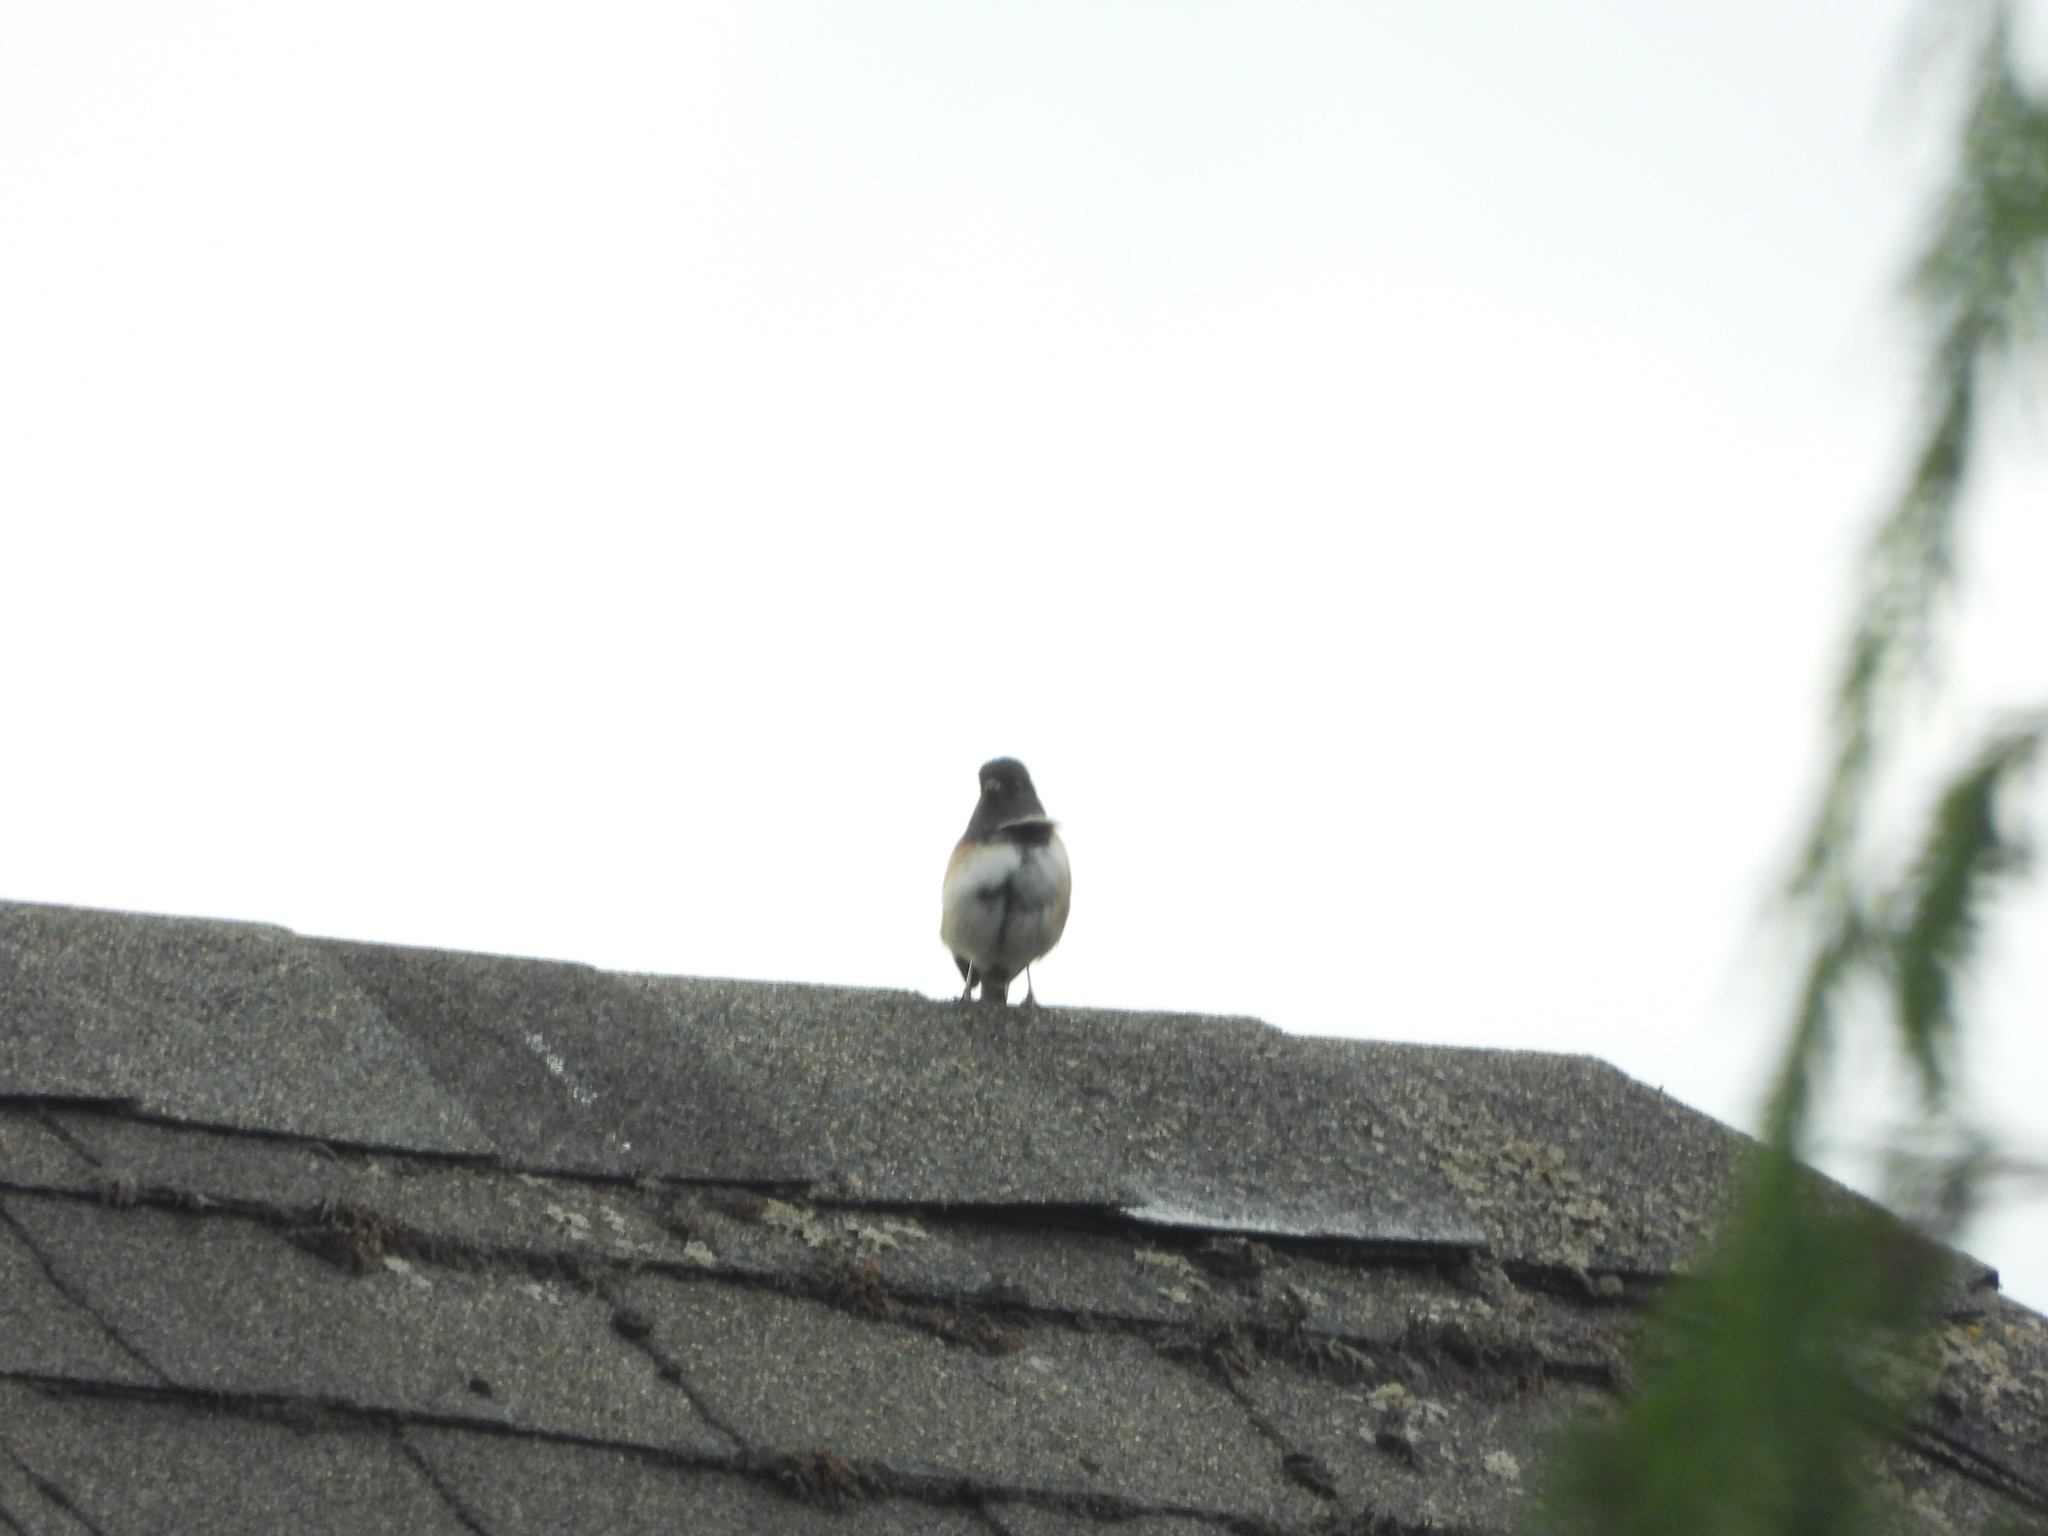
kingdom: Animalia
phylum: Chordata
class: Aves
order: Passeriformes
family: Passerellidae
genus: Junco
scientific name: Junco hyemalis
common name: Dark-eyed junco
